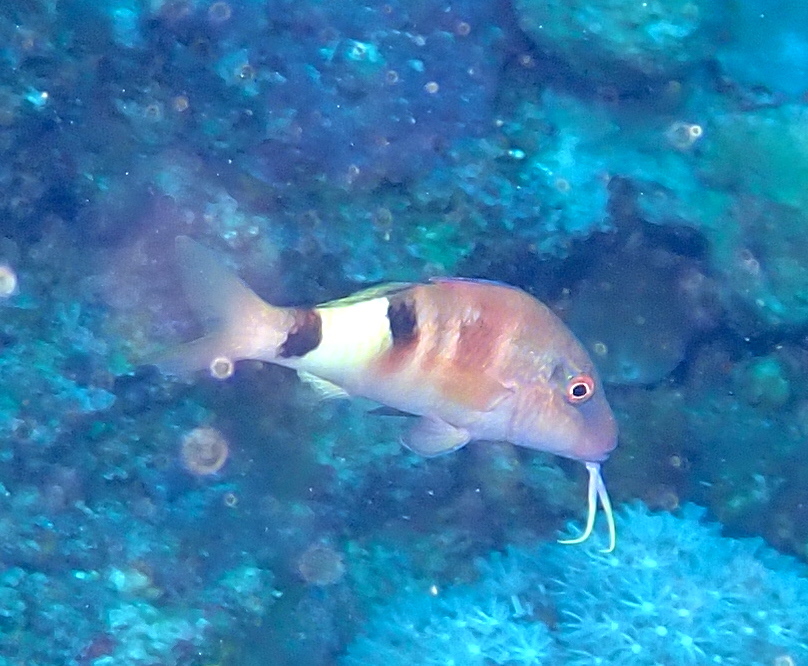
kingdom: Animalia
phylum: Chordata
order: Perciformes
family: Mullidae
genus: Parupeneus
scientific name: Parupeneus multifasciatus
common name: Manybar goatfish
